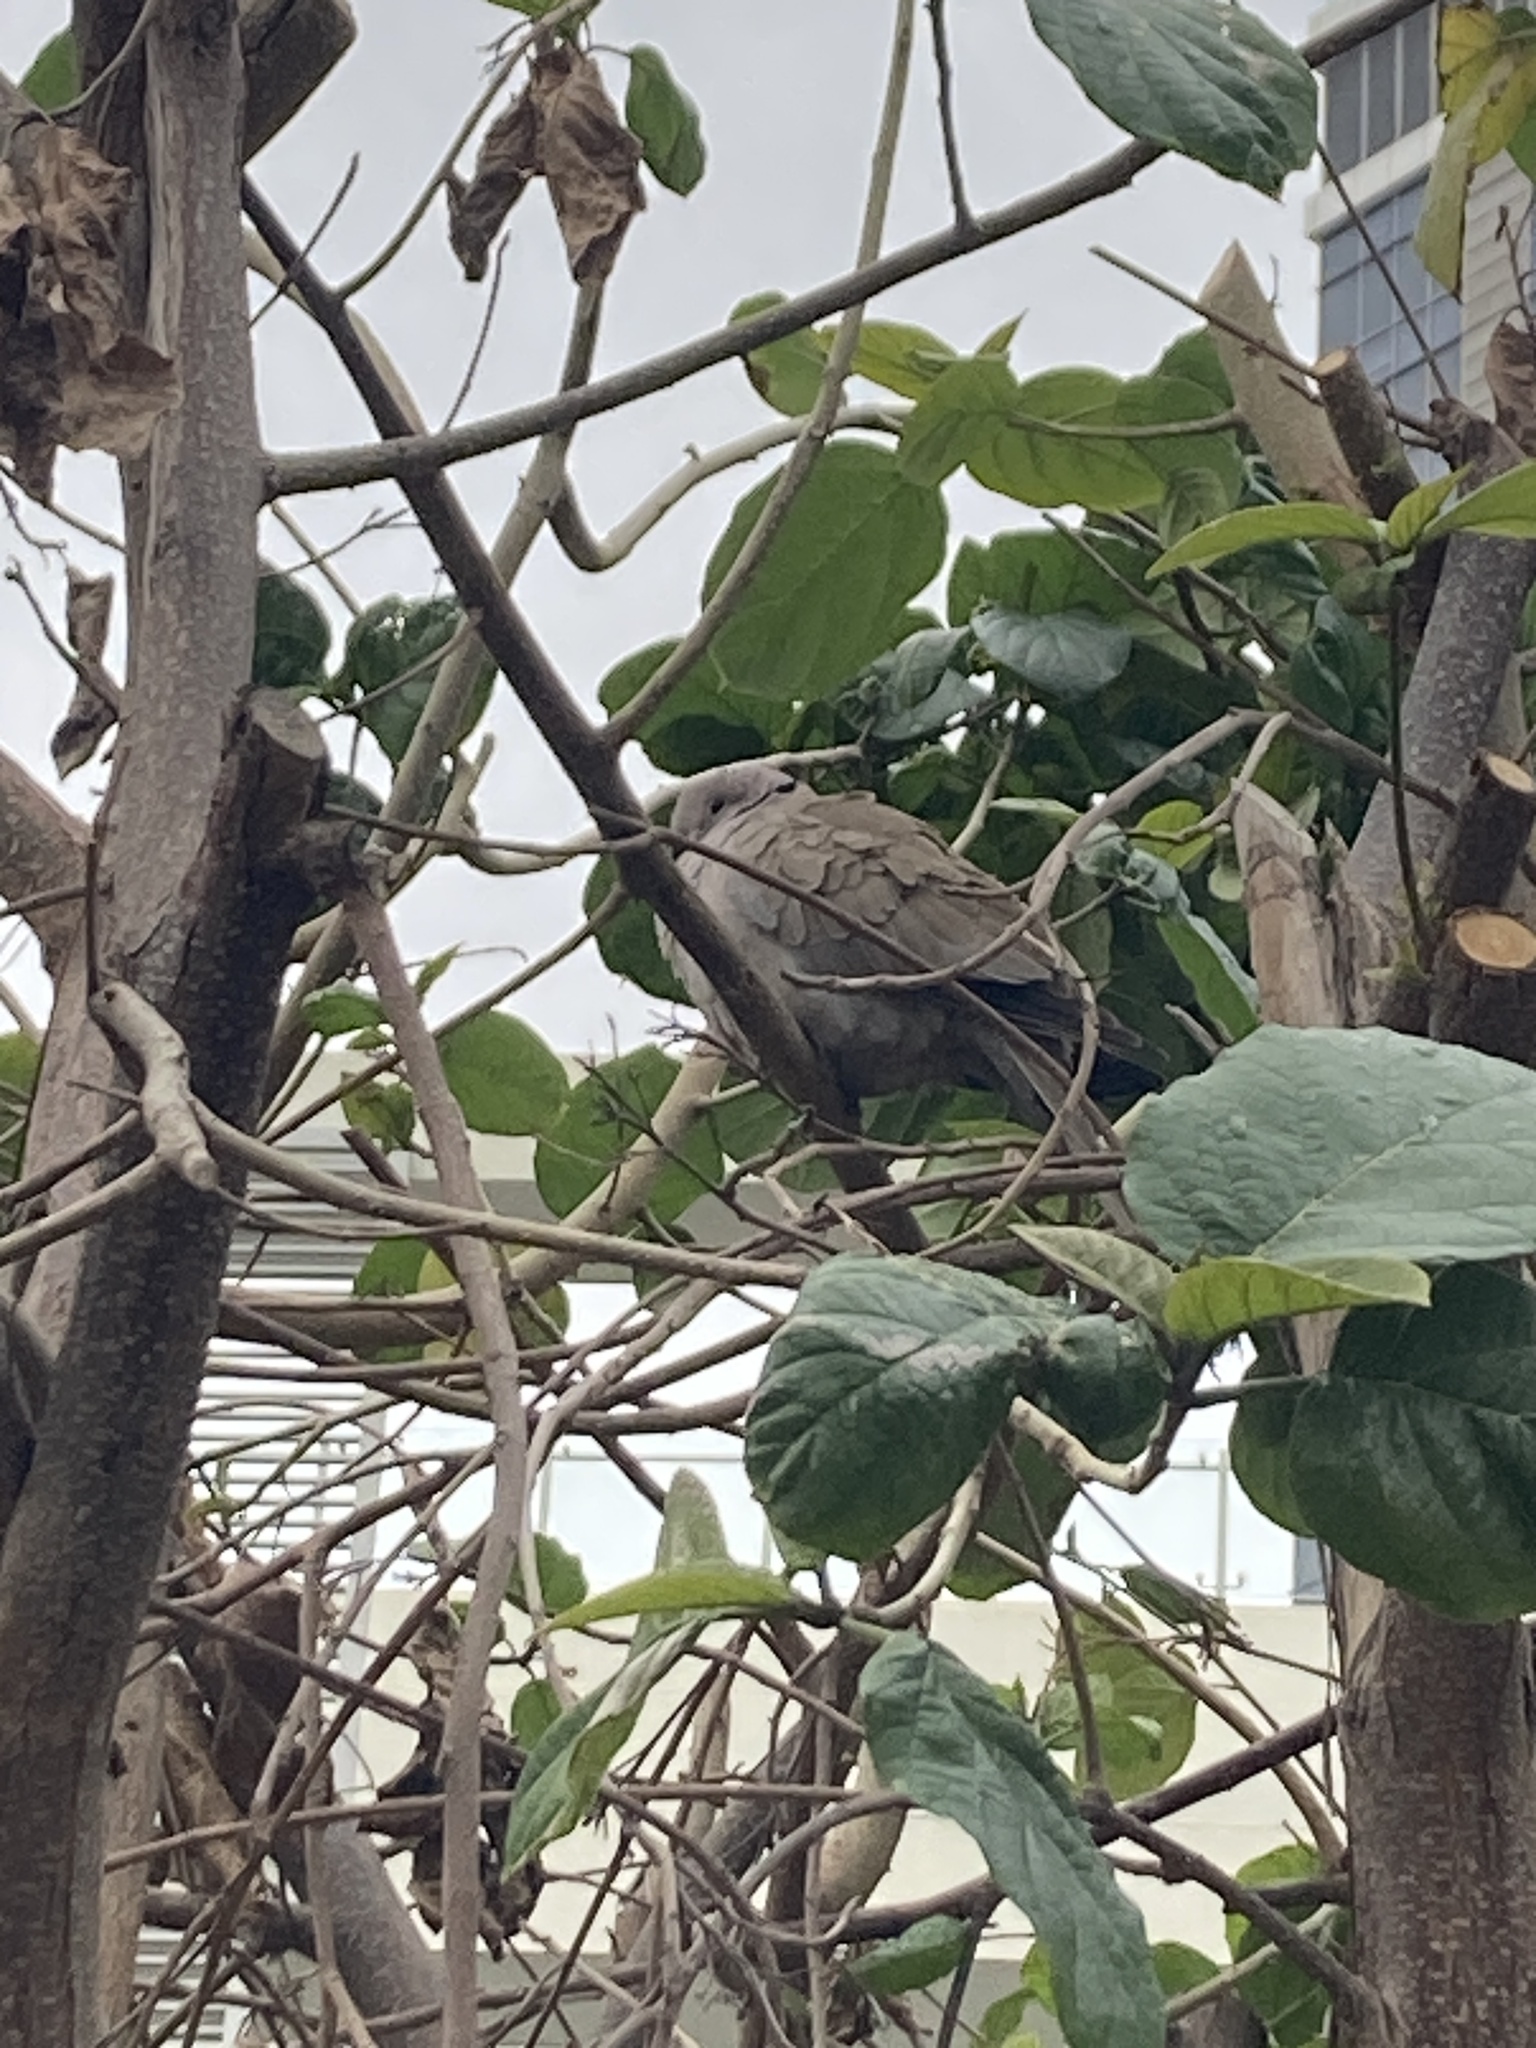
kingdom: Animalia
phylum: Chordata
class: Aves
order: Columbiformes
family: Columbidae
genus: Streptopelia
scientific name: Streptopelia decaocto
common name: Eurasian collared dove
